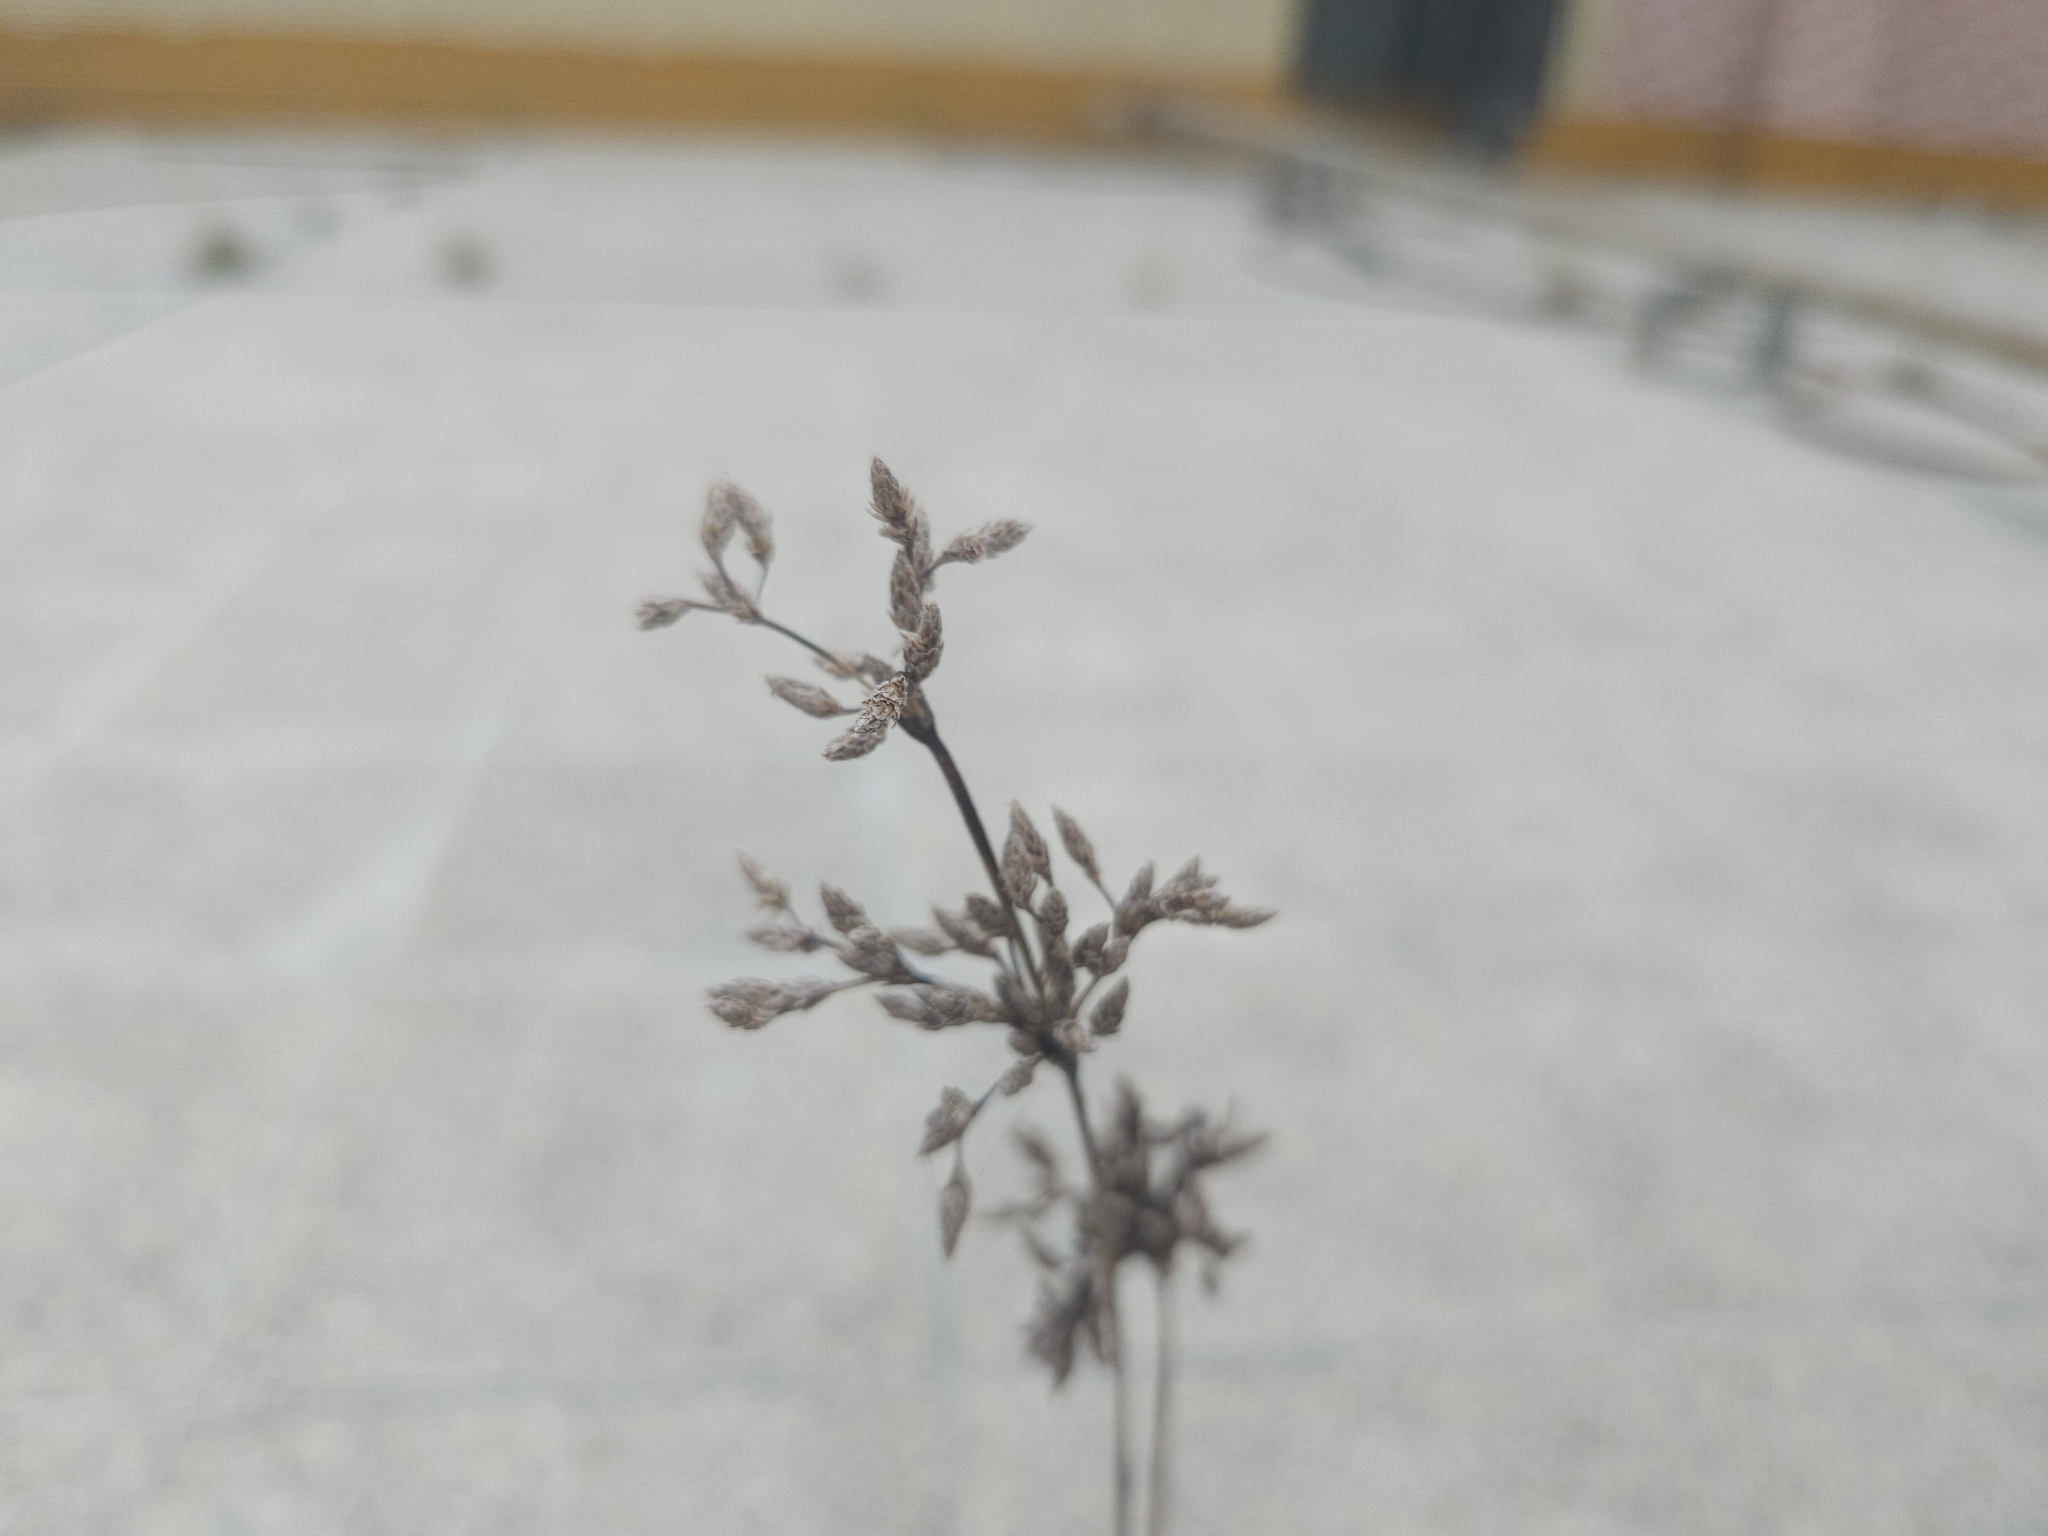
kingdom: Plantae
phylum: Tracheophyta
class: Liliopsida
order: Poales
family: Cyperaceae
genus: Fimbristylis
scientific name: Fimbristylis cymosa
